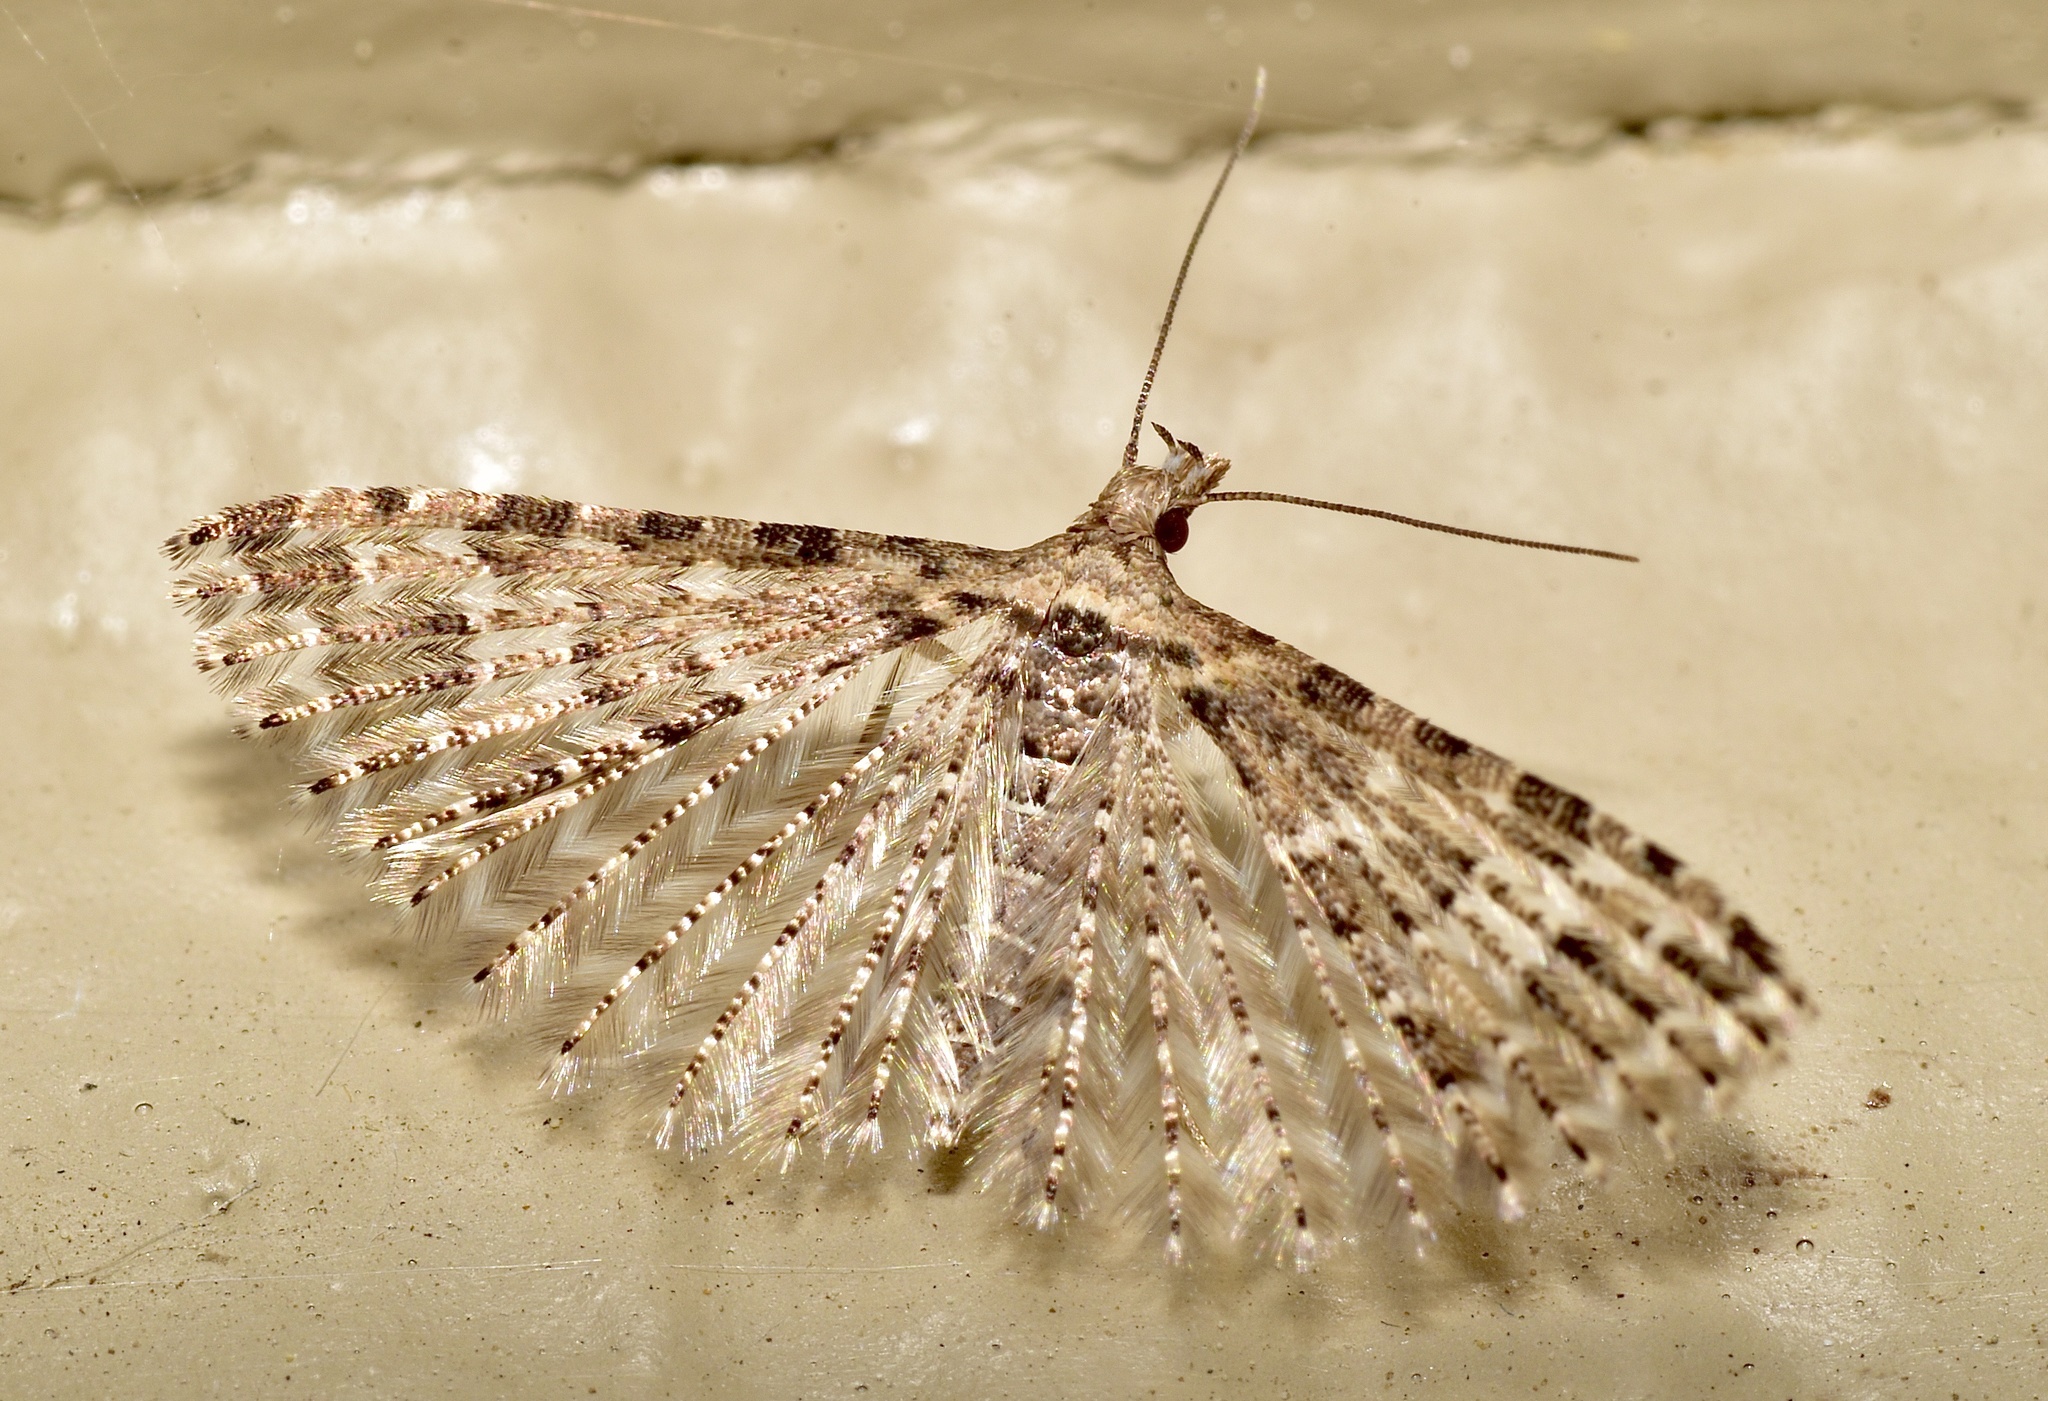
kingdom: Animalia
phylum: Arthropoda
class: Insecta
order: Lepidoptera
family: Alucitidae
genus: Alucita
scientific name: Alucita montana
